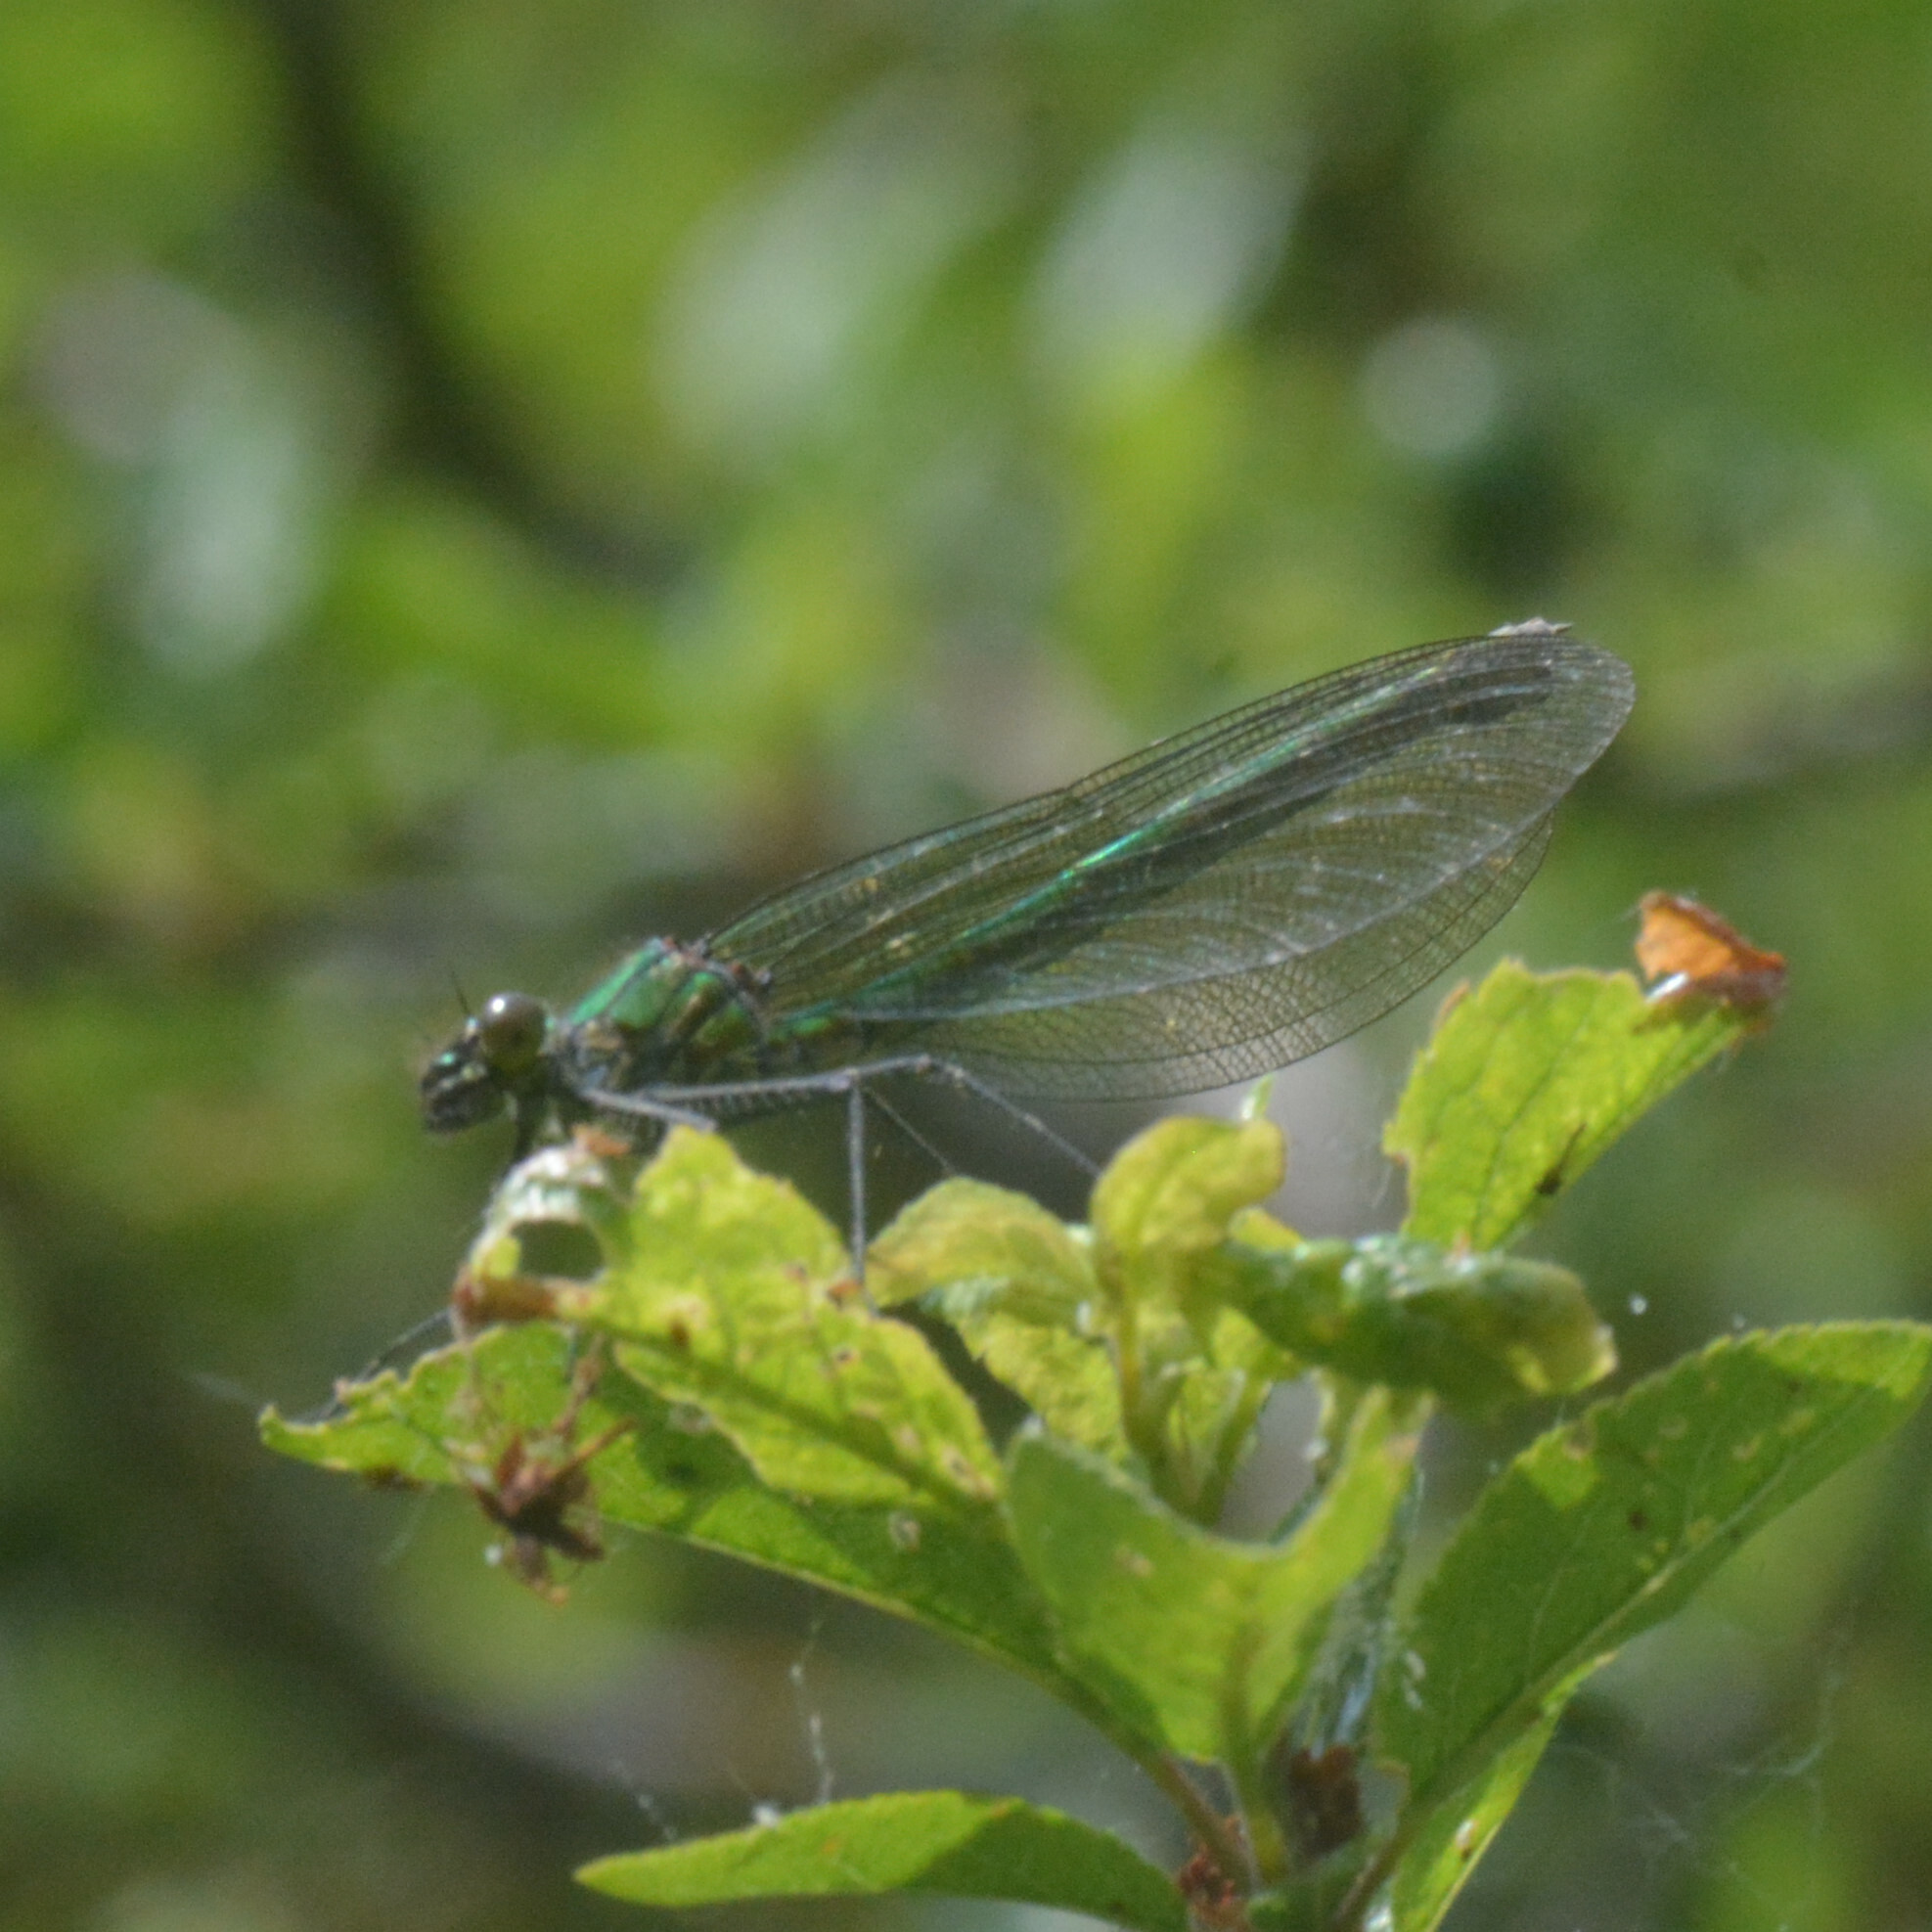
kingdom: Animalia
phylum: Arthropoda
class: Insecta
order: Odonata
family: Calopterygidae
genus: Calopteryx
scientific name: Calopteryx splendens
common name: Banded demoiselle
